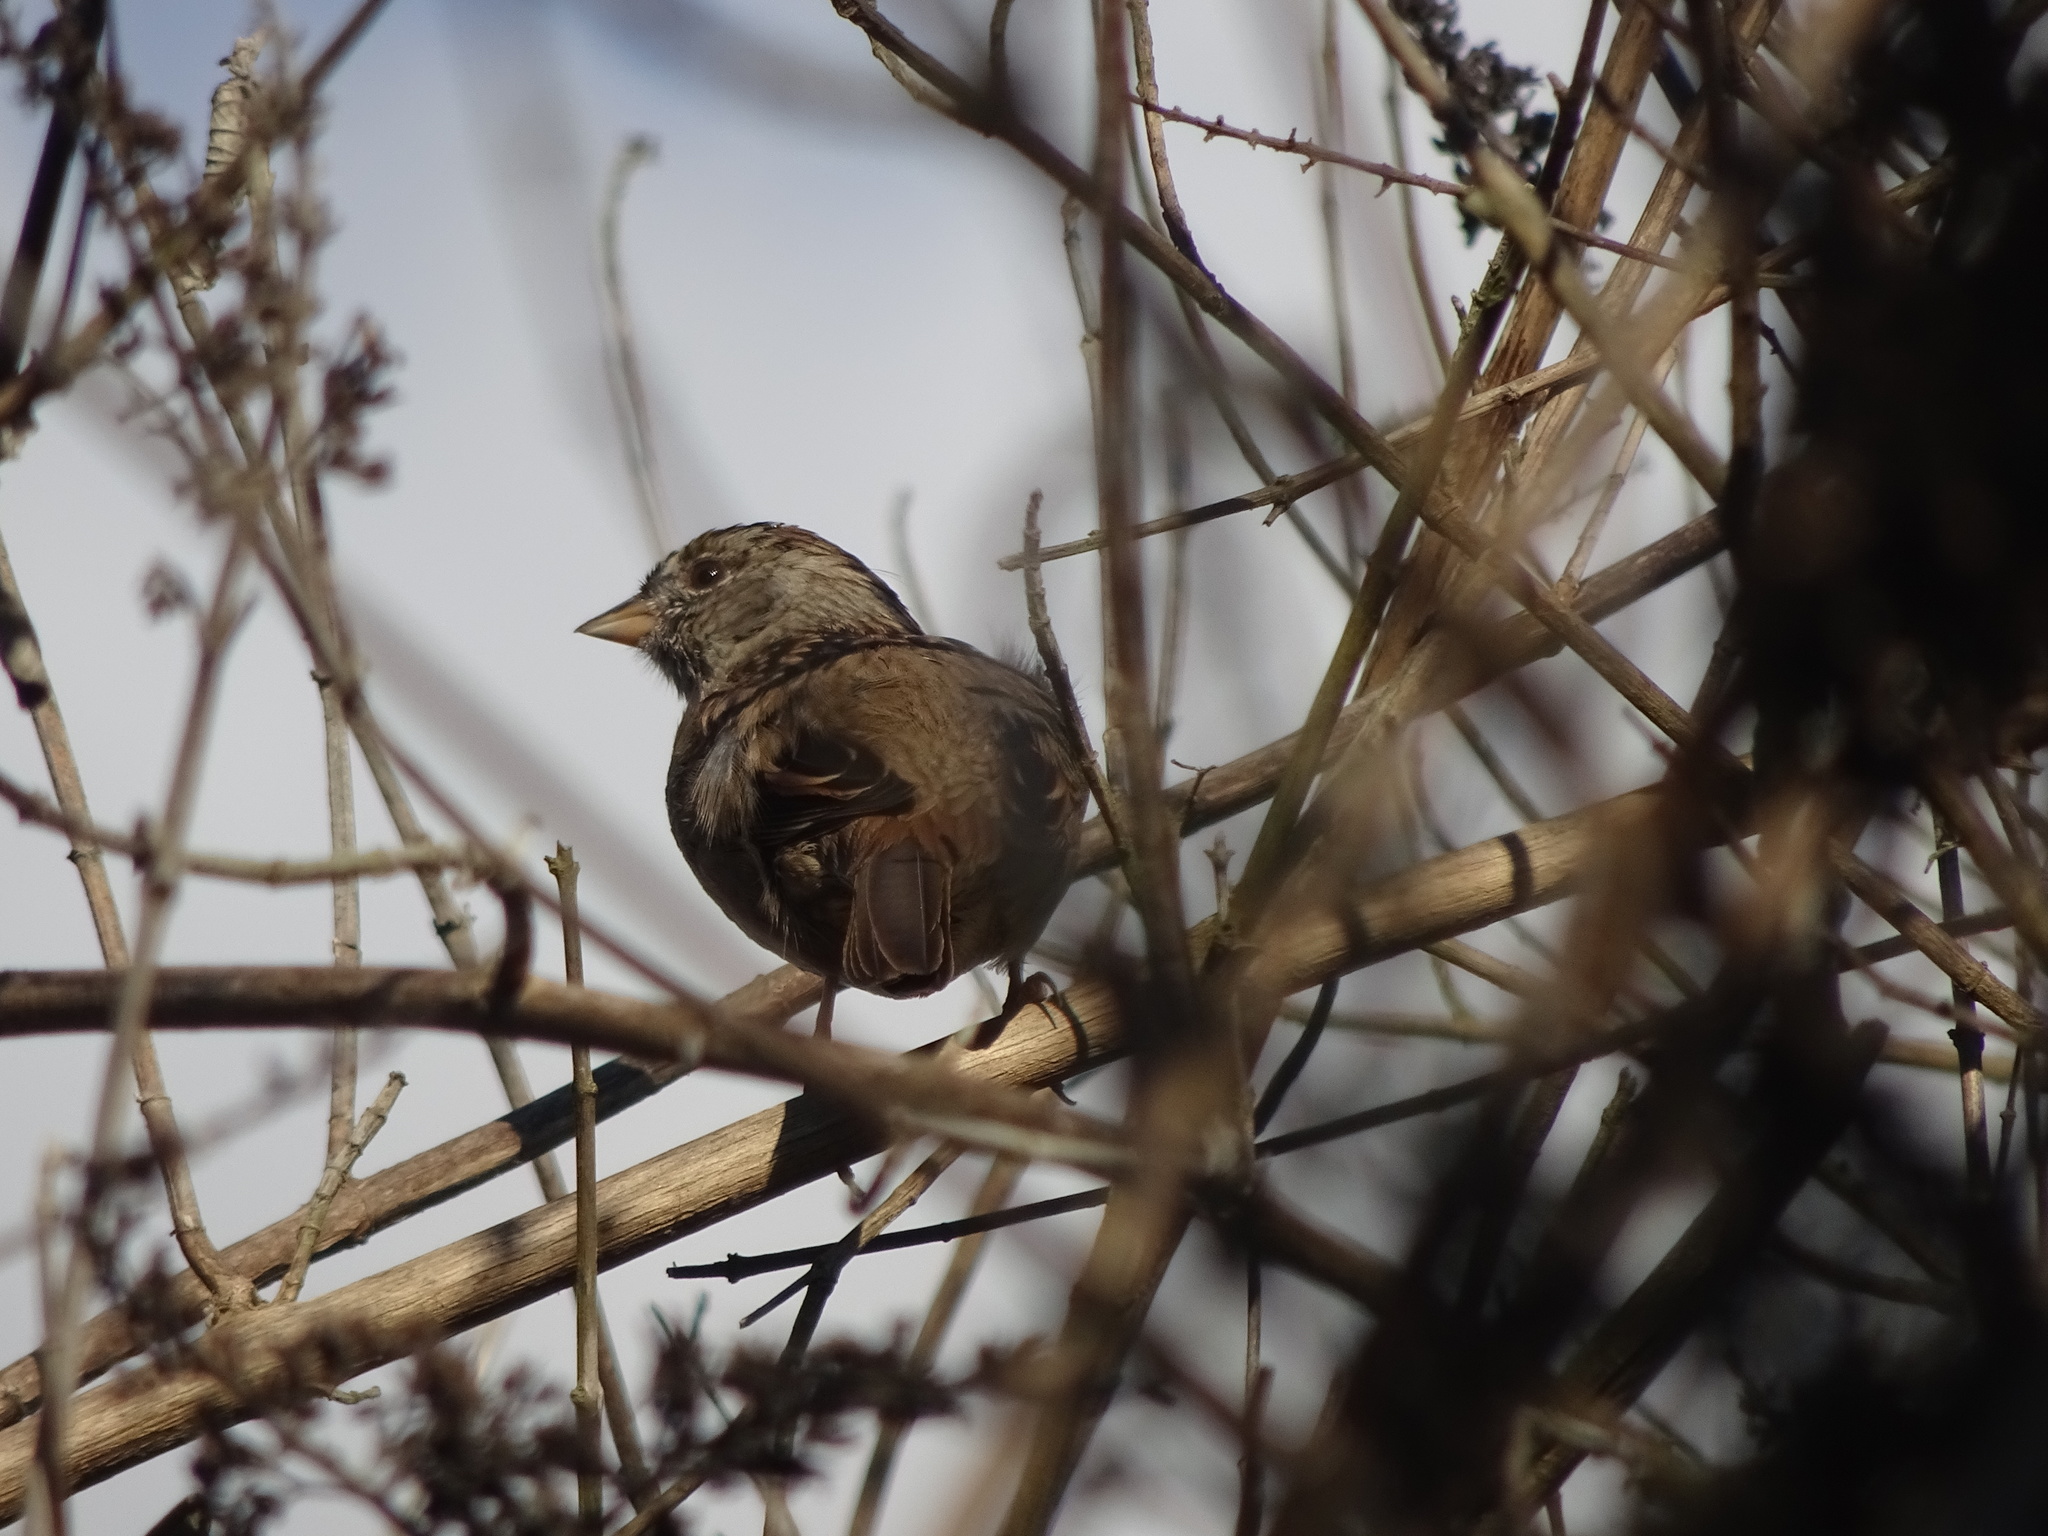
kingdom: Animalia
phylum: Chordata
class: Aves
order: Passeriformes
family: Passerellidae
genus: Zonotrichia
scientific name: Zonotrichia atricapilla
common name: Golden-crowned sparrow
